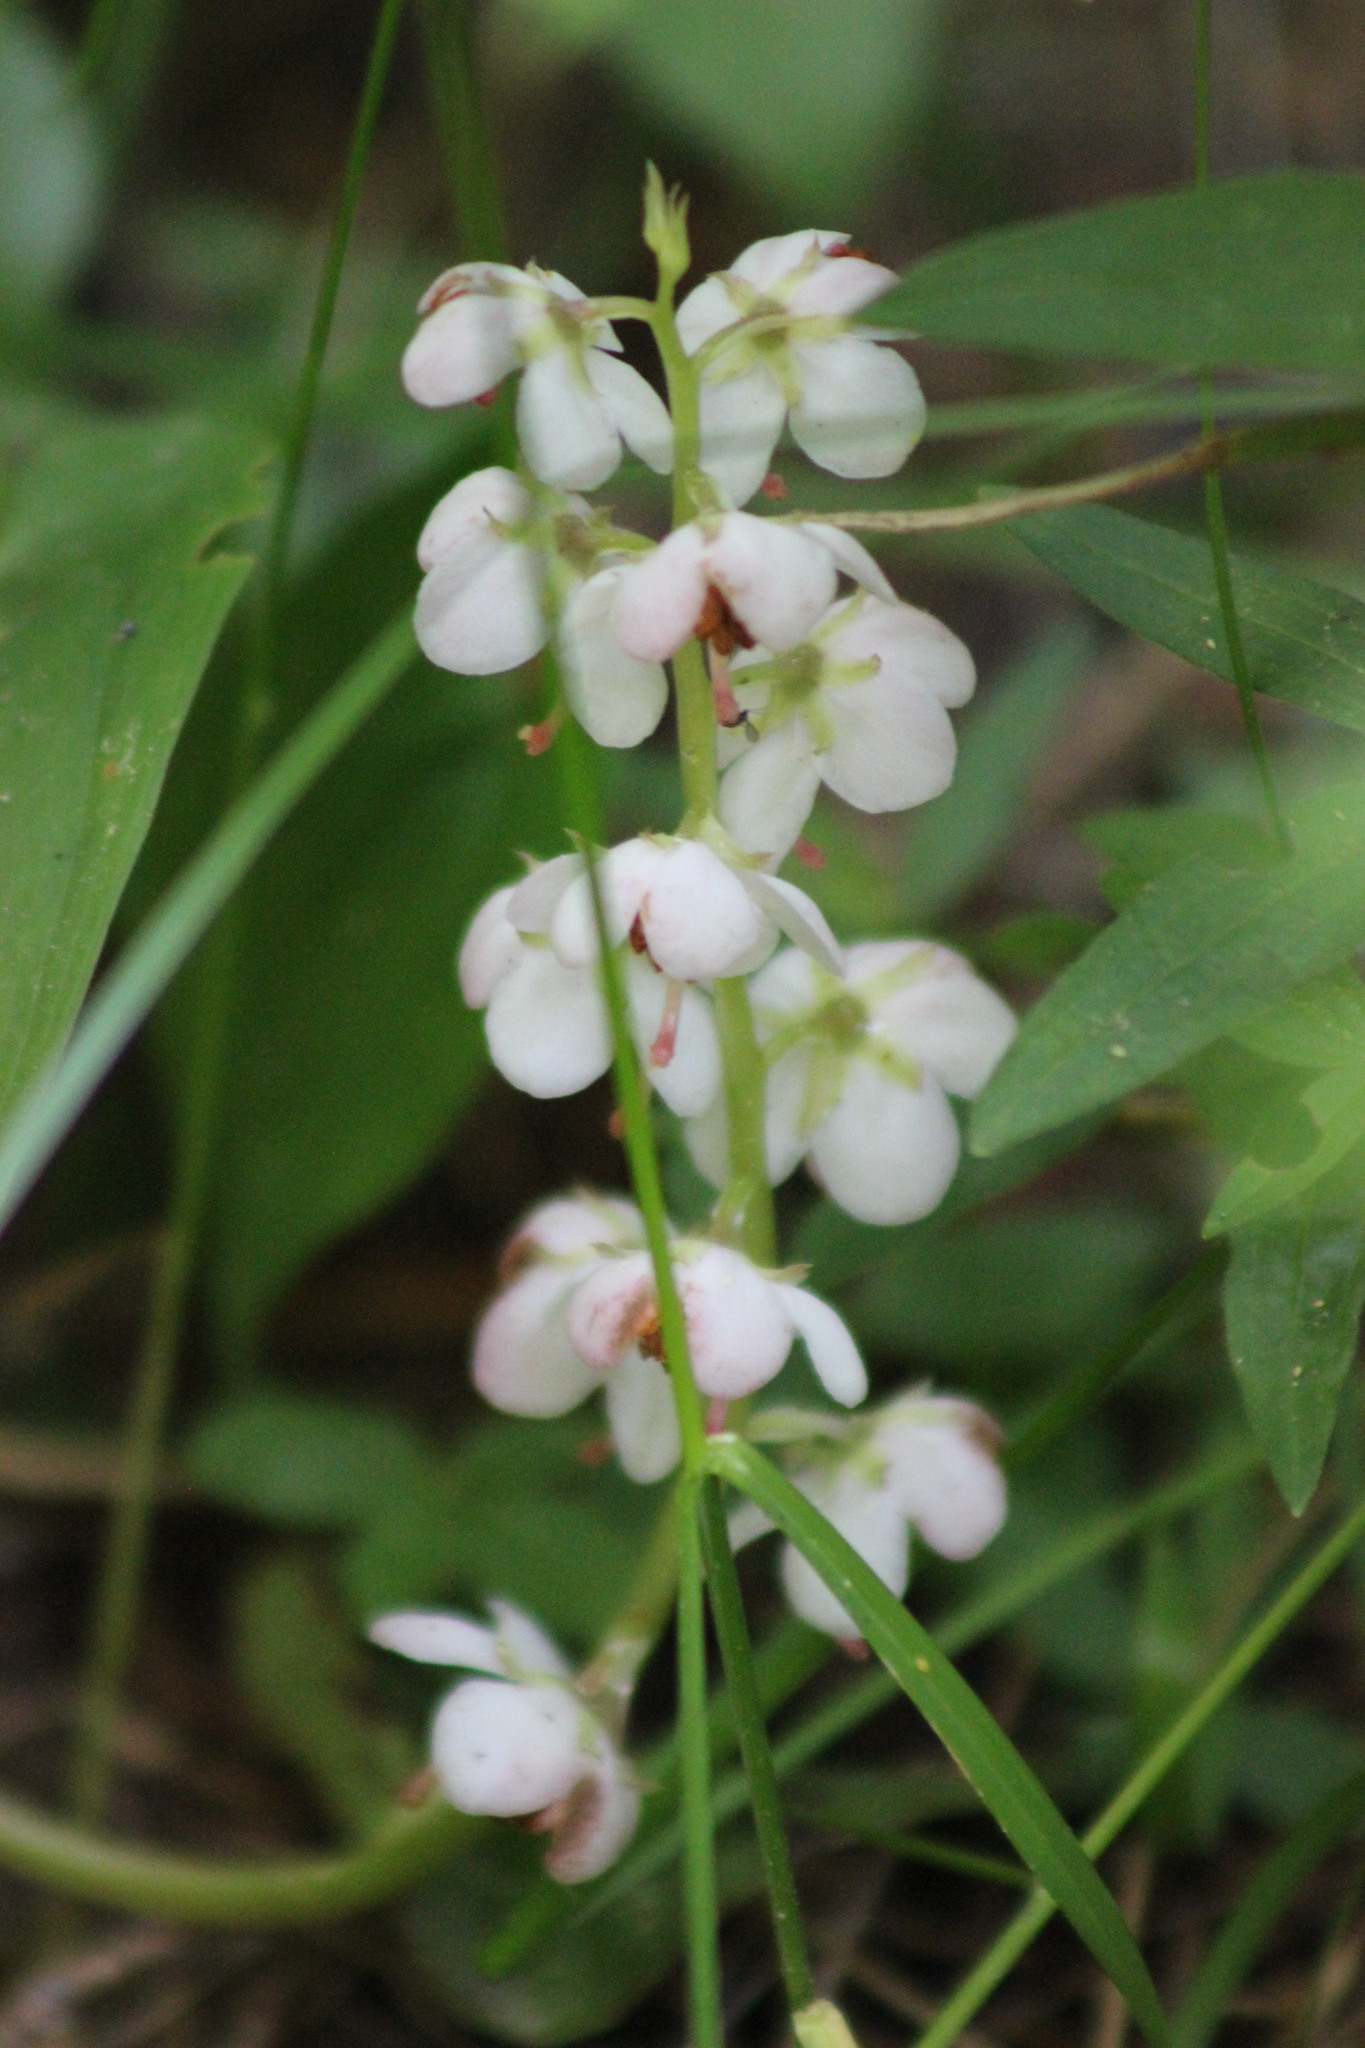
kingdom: Plantae
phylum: Tracheophyta
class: Magnoliopsida
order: Ericales
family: Ericaceae
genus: Pyrola
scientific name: Pyrola asarifolia
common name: Bog wintergreen
